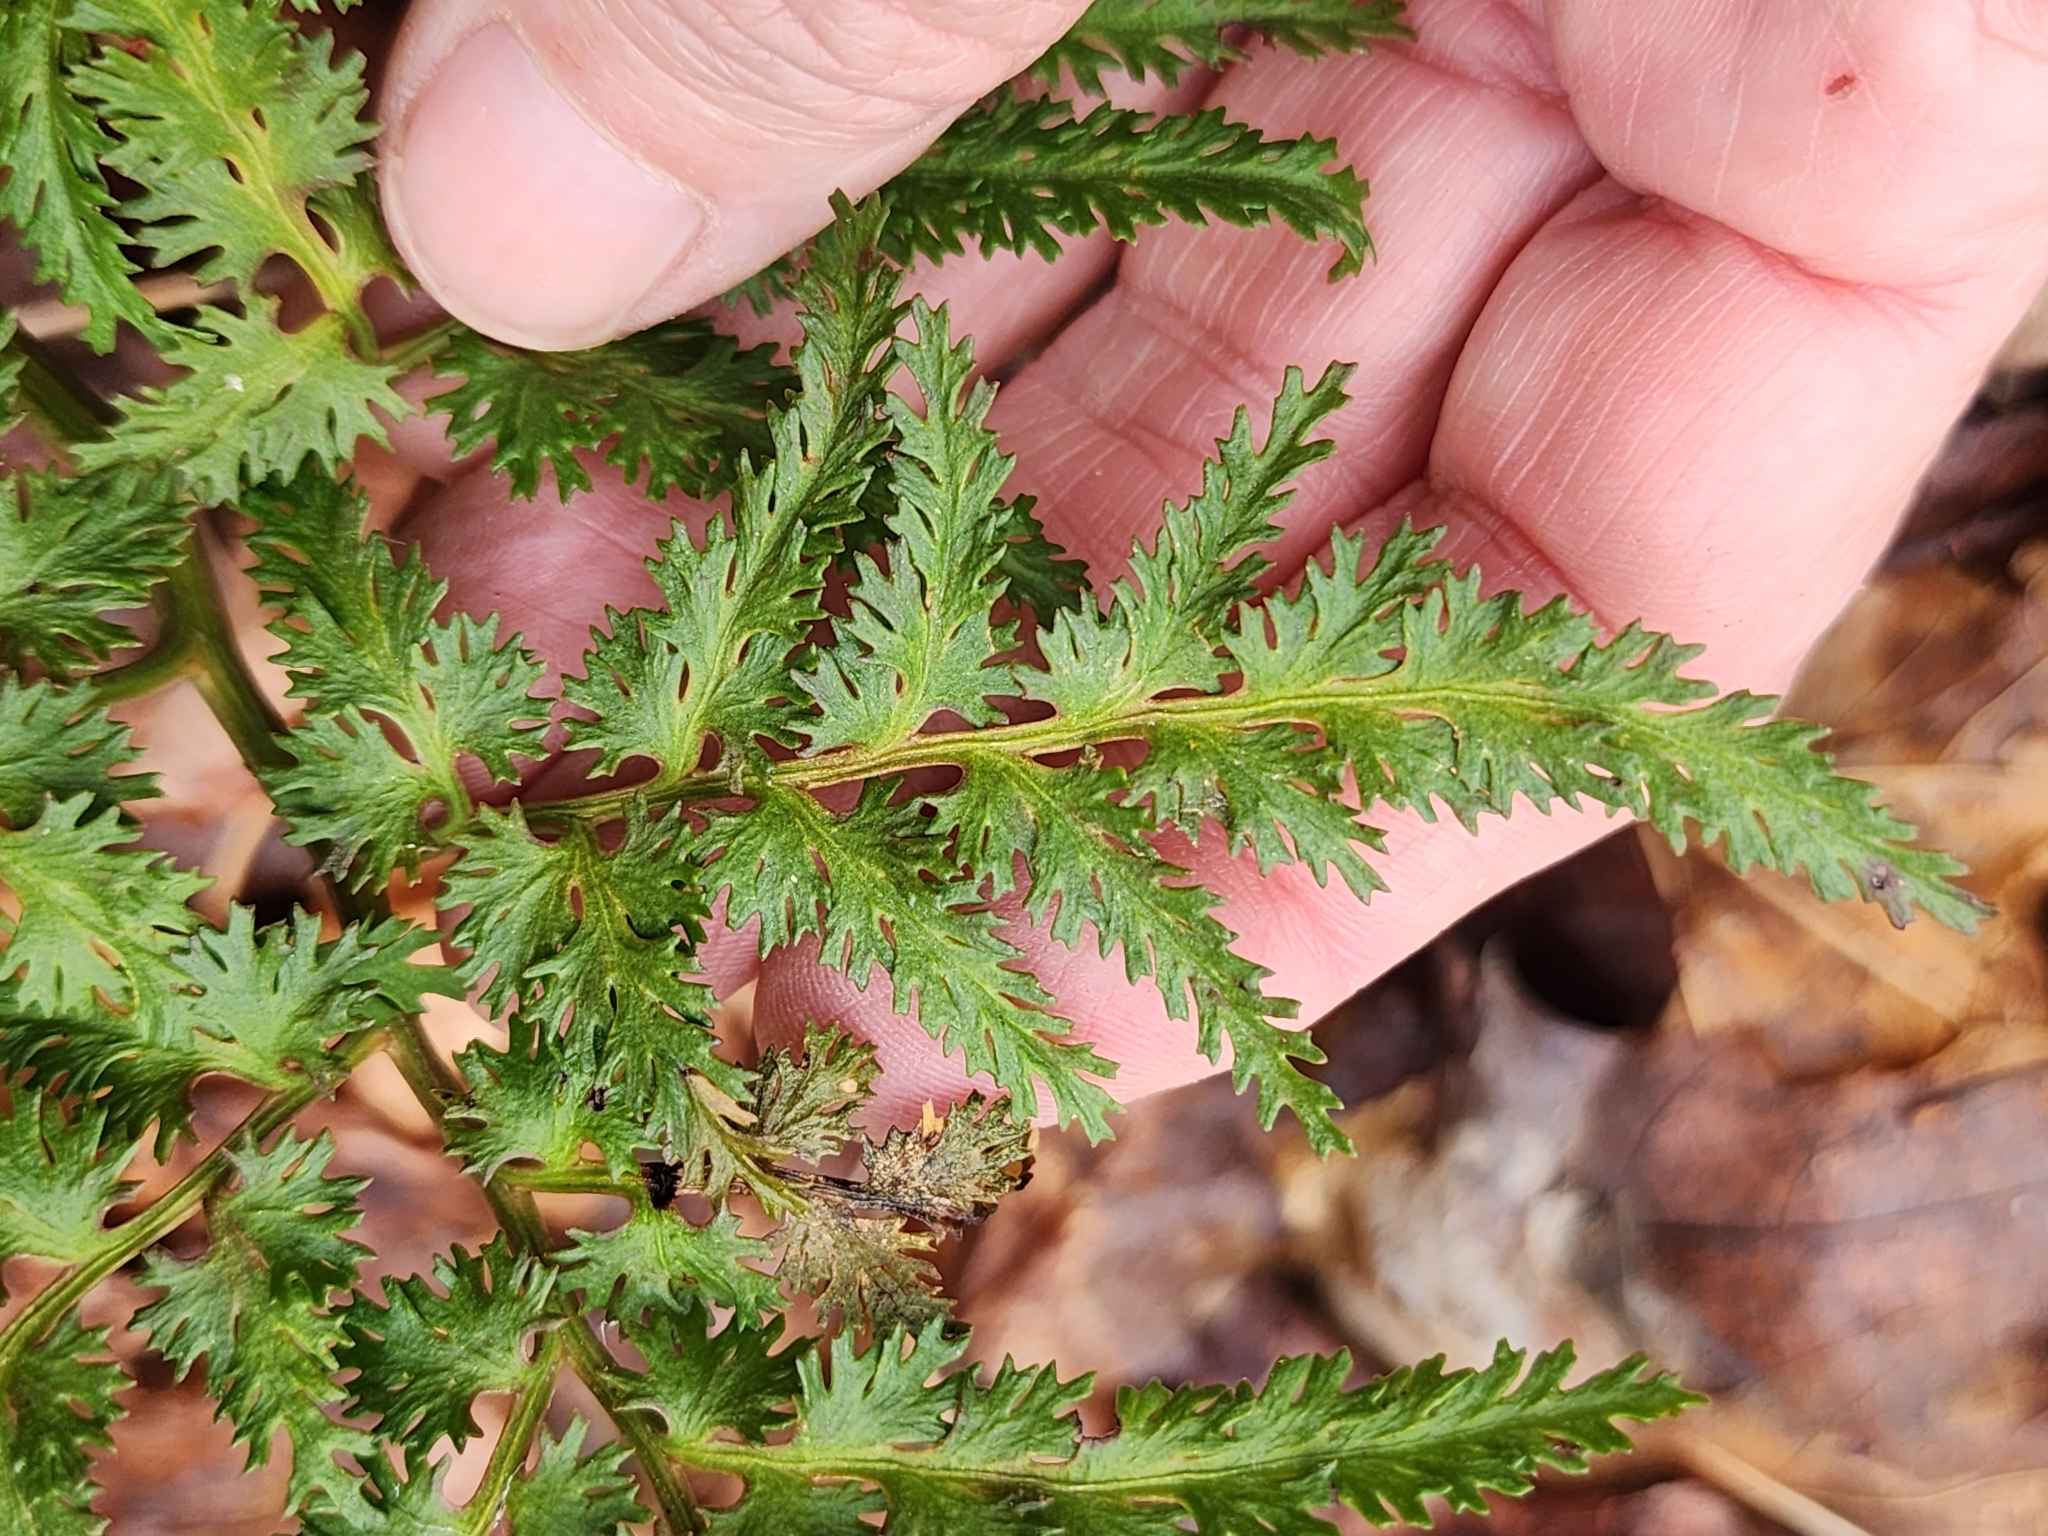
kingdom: Plantae
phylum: Tracheophyta
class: Polypodiopsida
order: Ophioglossales
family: Ophioglossaceae
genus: Sceptridium
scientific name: Sceptridium dissectum
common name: Cut-leaved grapefern
